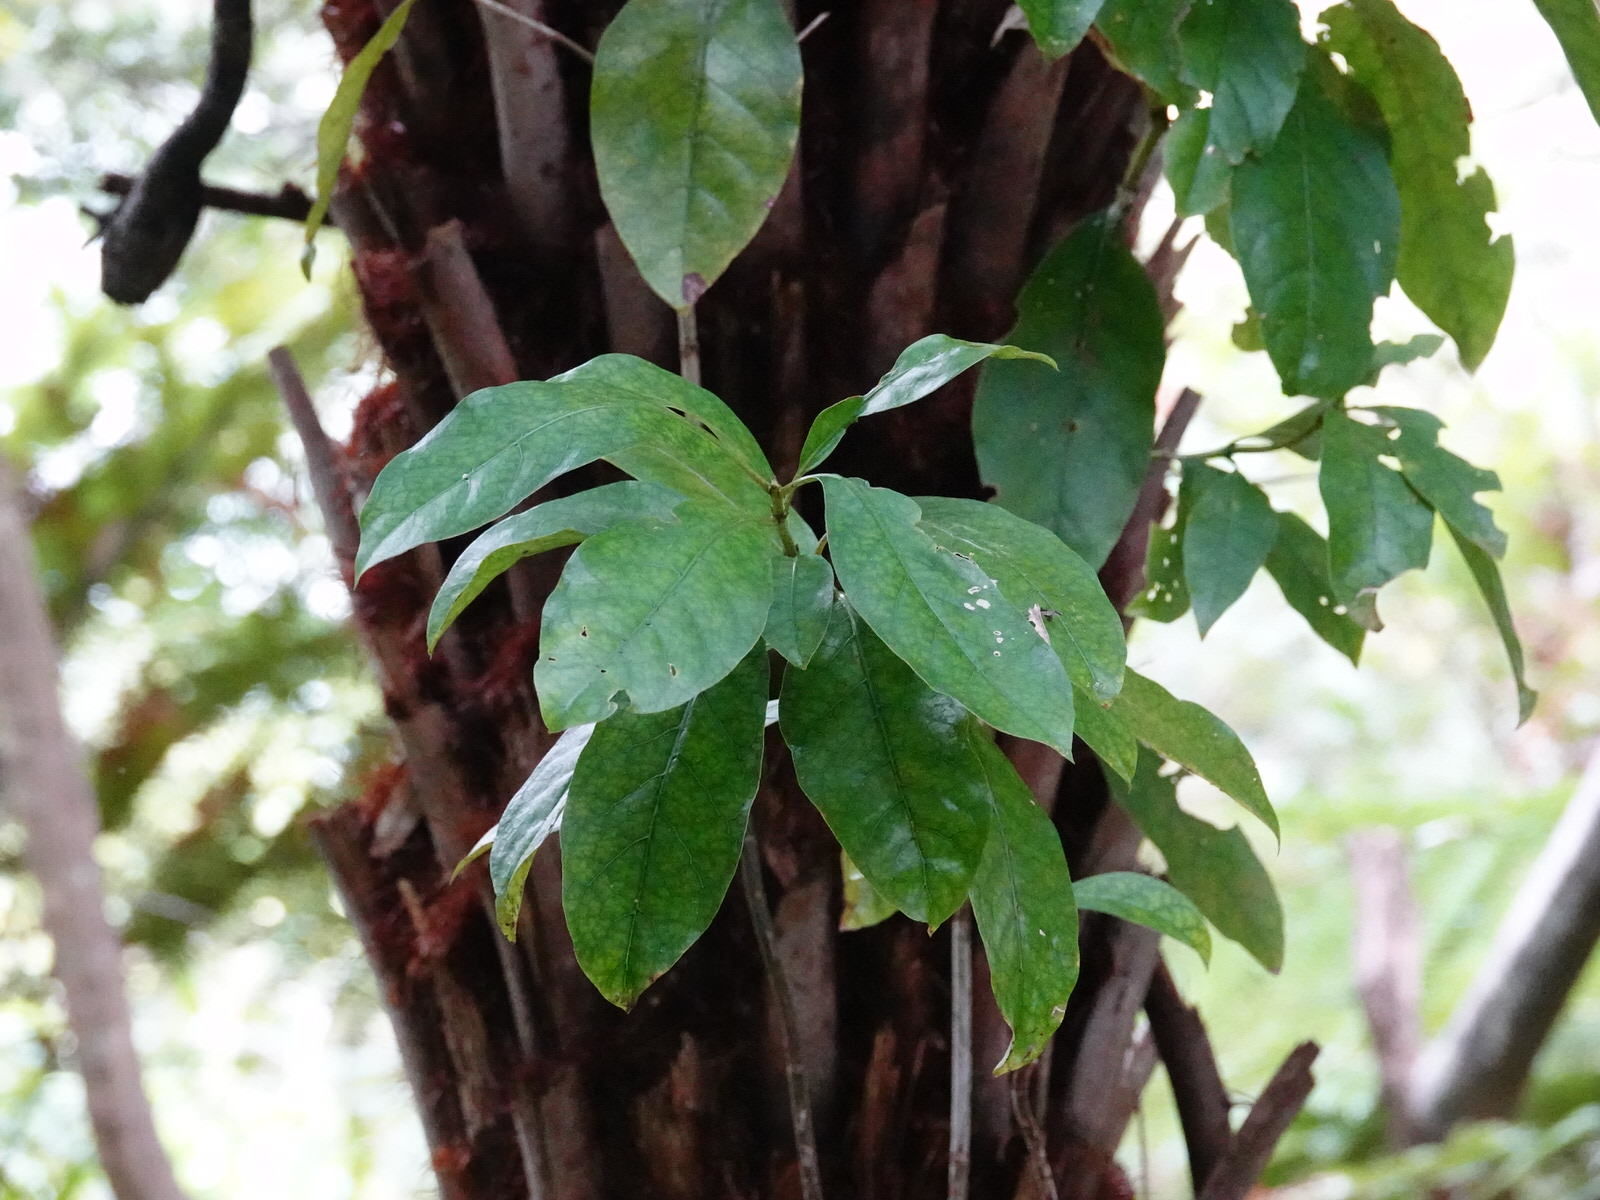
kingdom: Plantae
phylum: Tracheophyta
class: Magnoliopsida
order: Gentianales
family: Rubiaceae
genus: Coprosma
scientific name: Coprosma autumnalis
